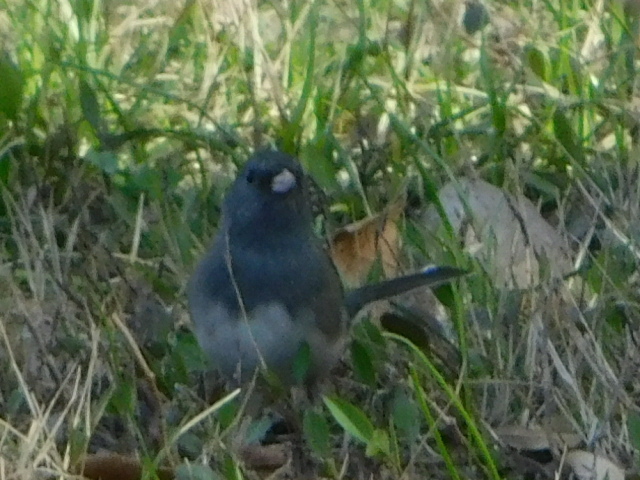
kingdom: Animalia
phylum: Chordata
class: Aves
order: Passeriformes
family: Passerellidae
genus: Junco
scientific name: Junco hyemalis
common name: Dark-eyed junco
